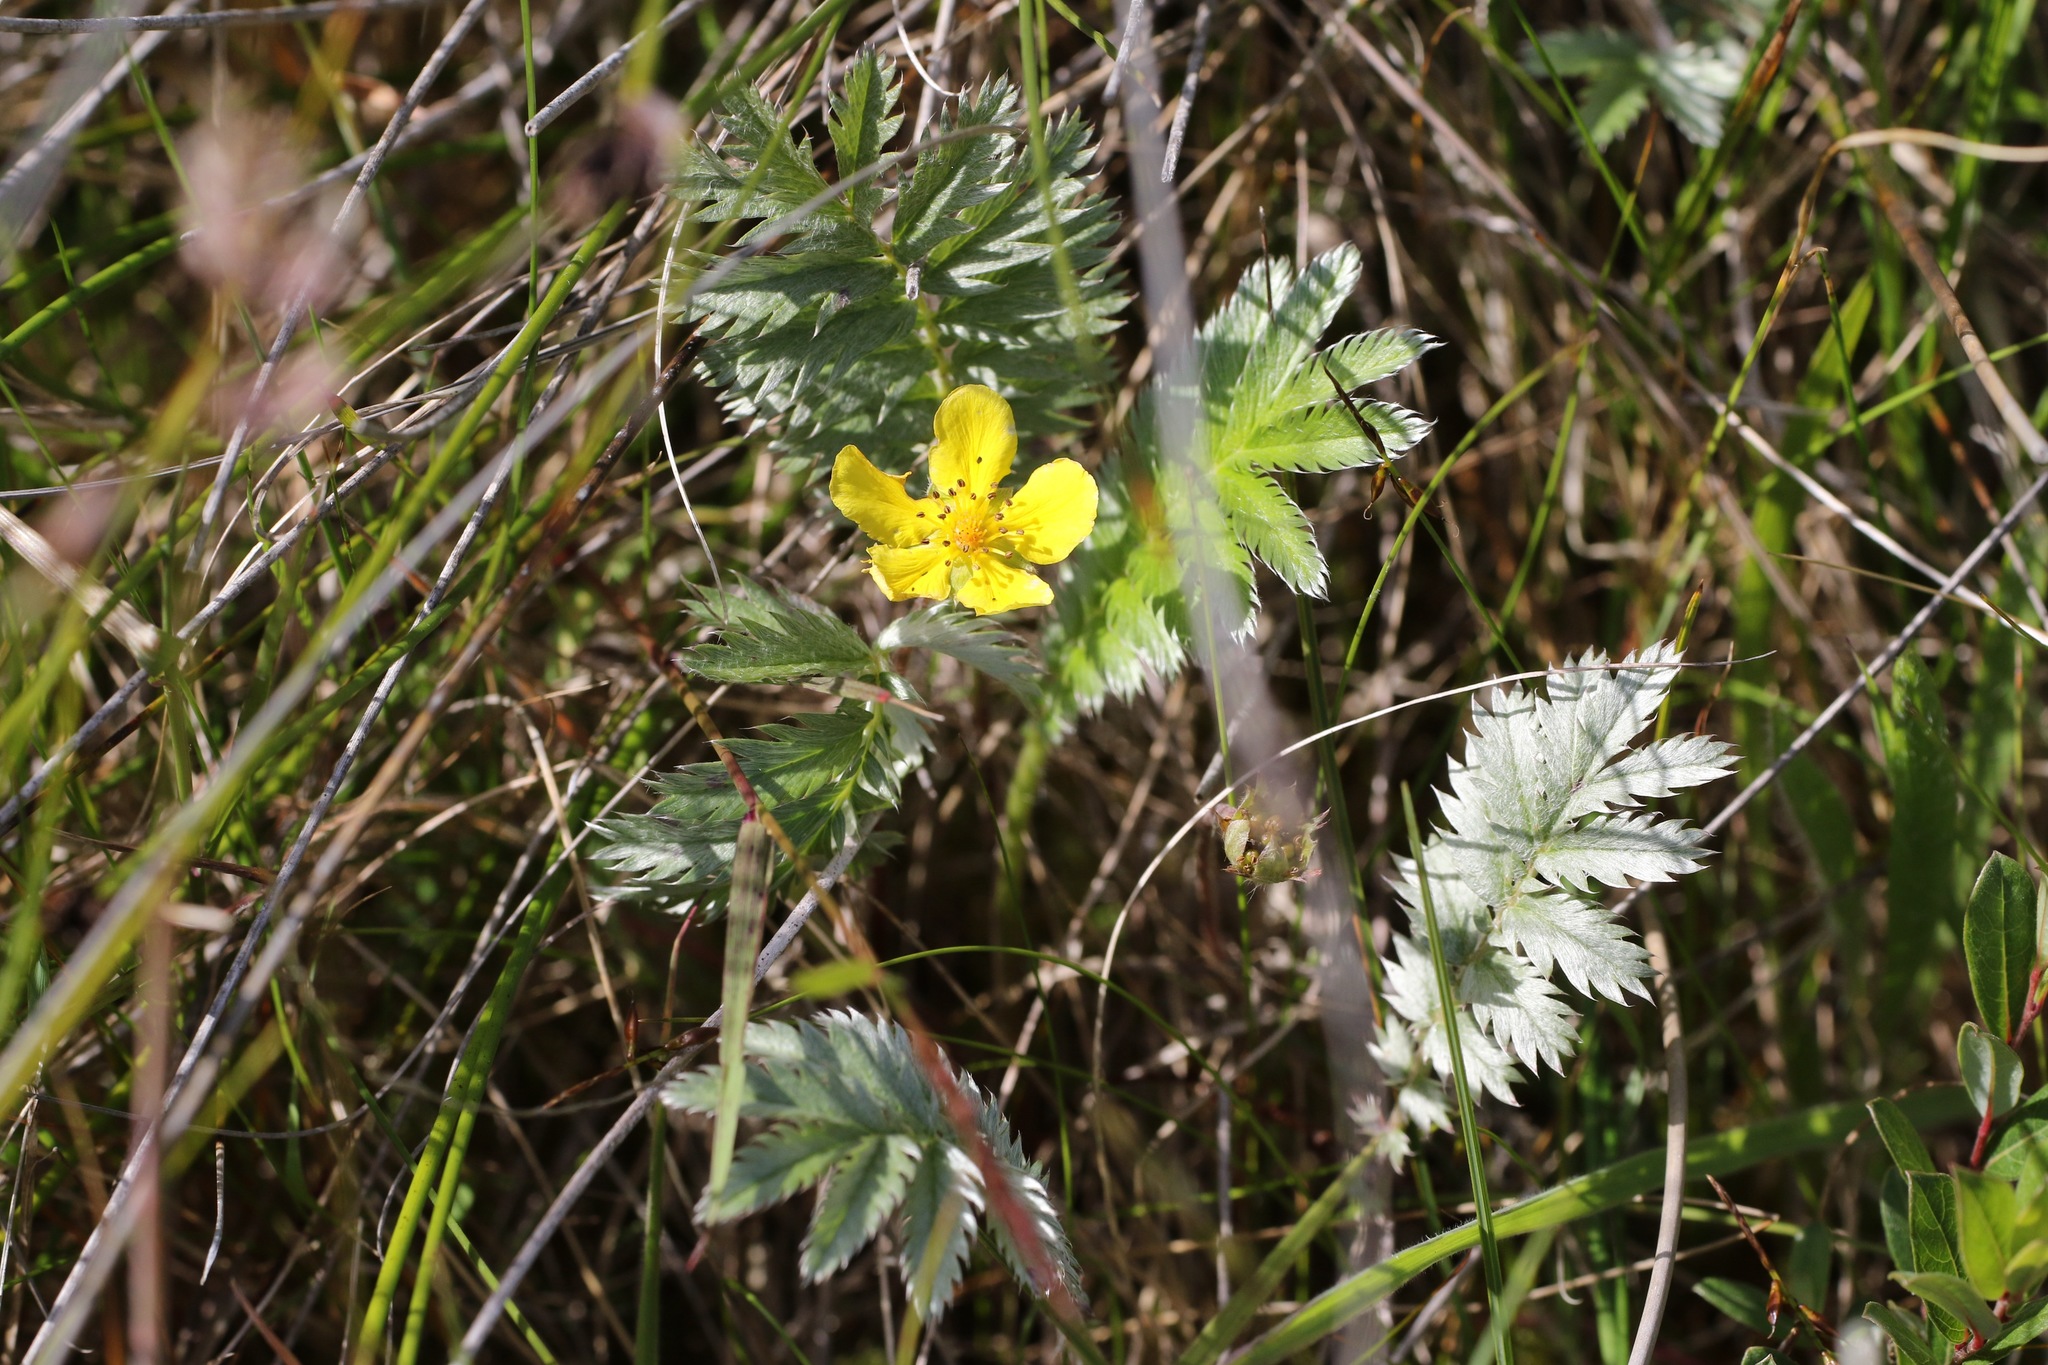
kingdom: Plantae
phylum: Tracheophyta
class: Magnoliopsida
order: Rosales
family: Rosaceae
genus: Argentina
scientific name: Argentina anserina
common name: Common silverweed
